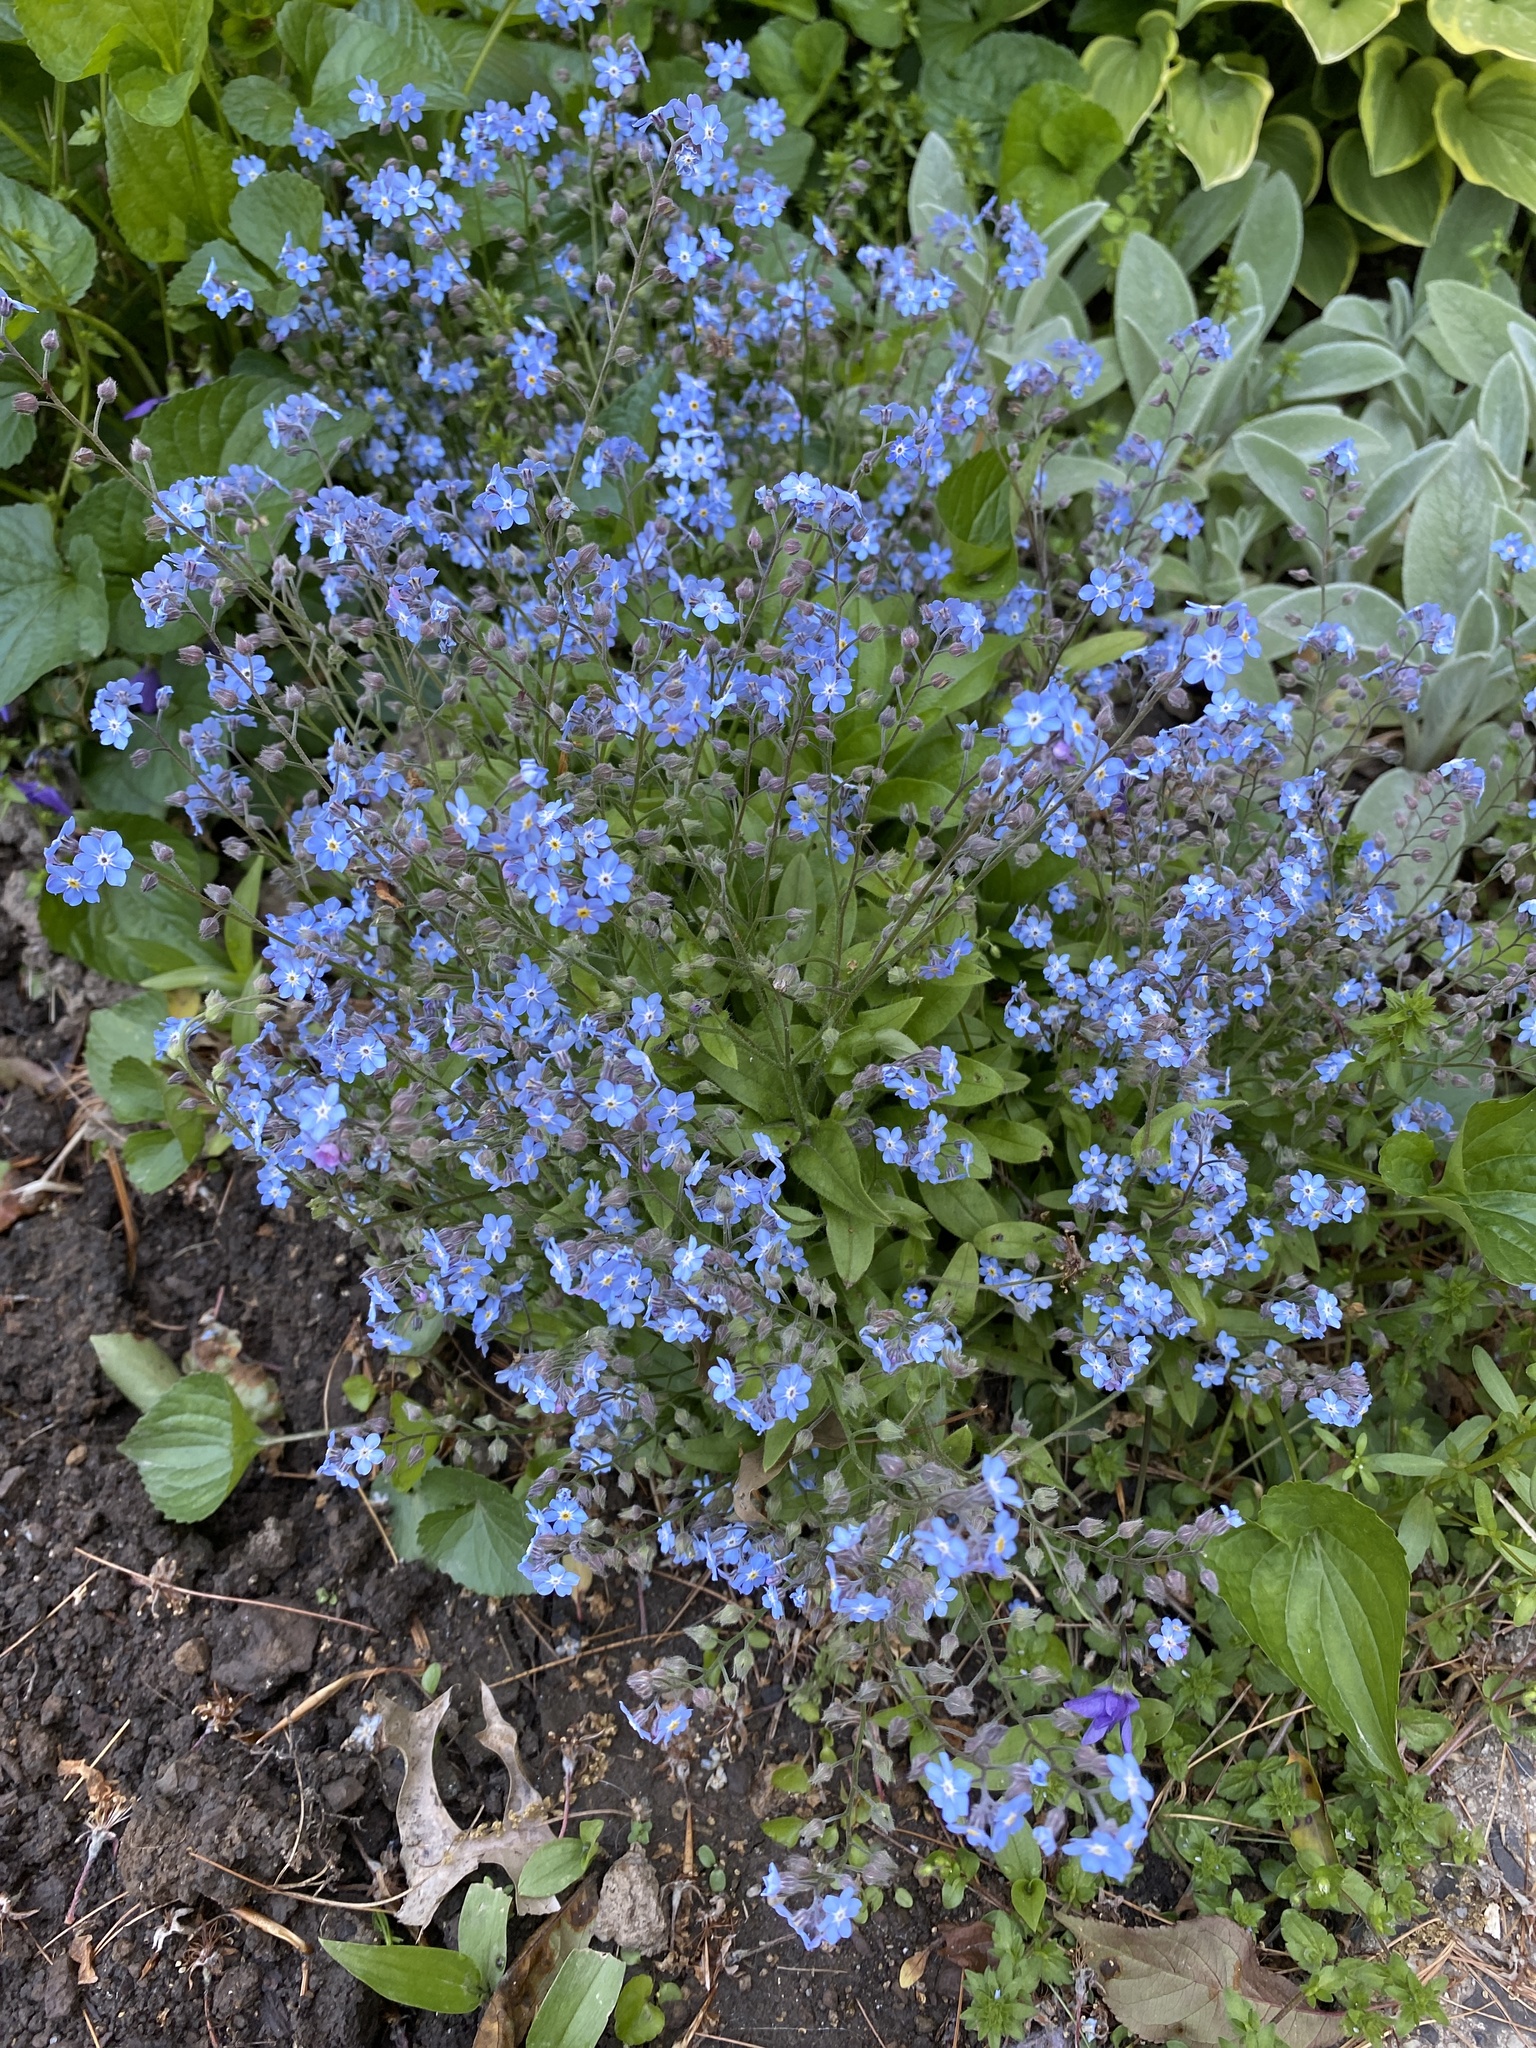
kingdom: Plantae
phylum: Tracheophyta
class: Magnoliopsida
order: Boraginales
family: Boraginaceae
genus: Myosotis
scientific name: Myosotis sylvatica
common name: Wood forget-me-not
